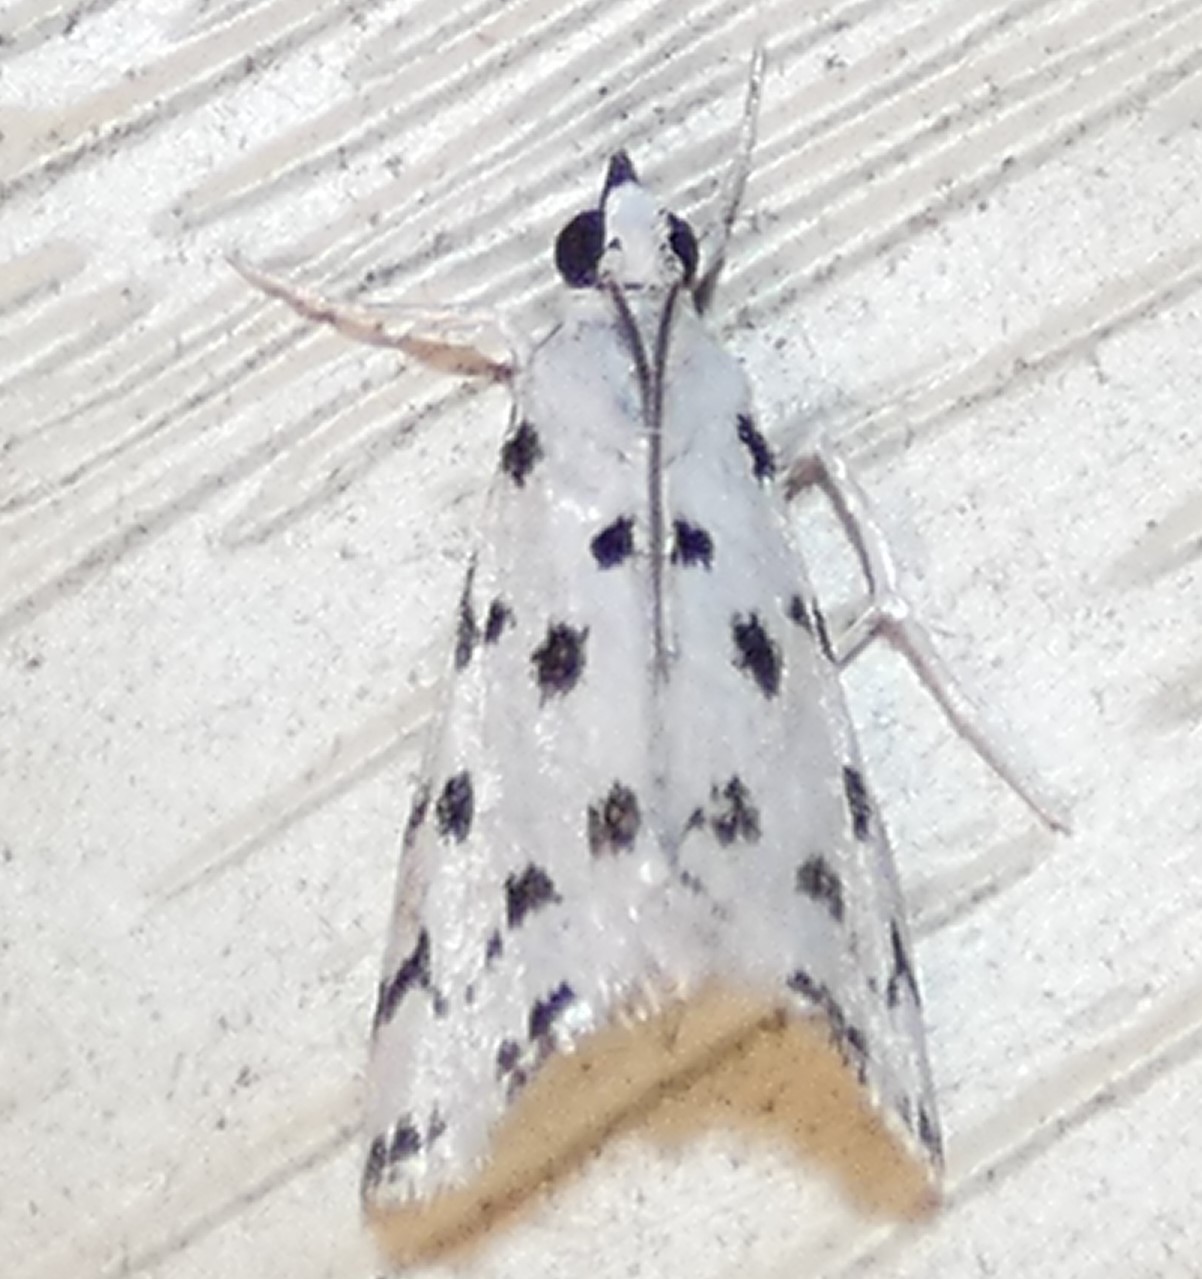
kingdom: Animalia
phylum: Arthropoda
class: Insecta
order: Lepidoptera
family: Crambidae
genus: Eustixia
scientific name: Eustixia pupula
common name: American cabbage pearl
